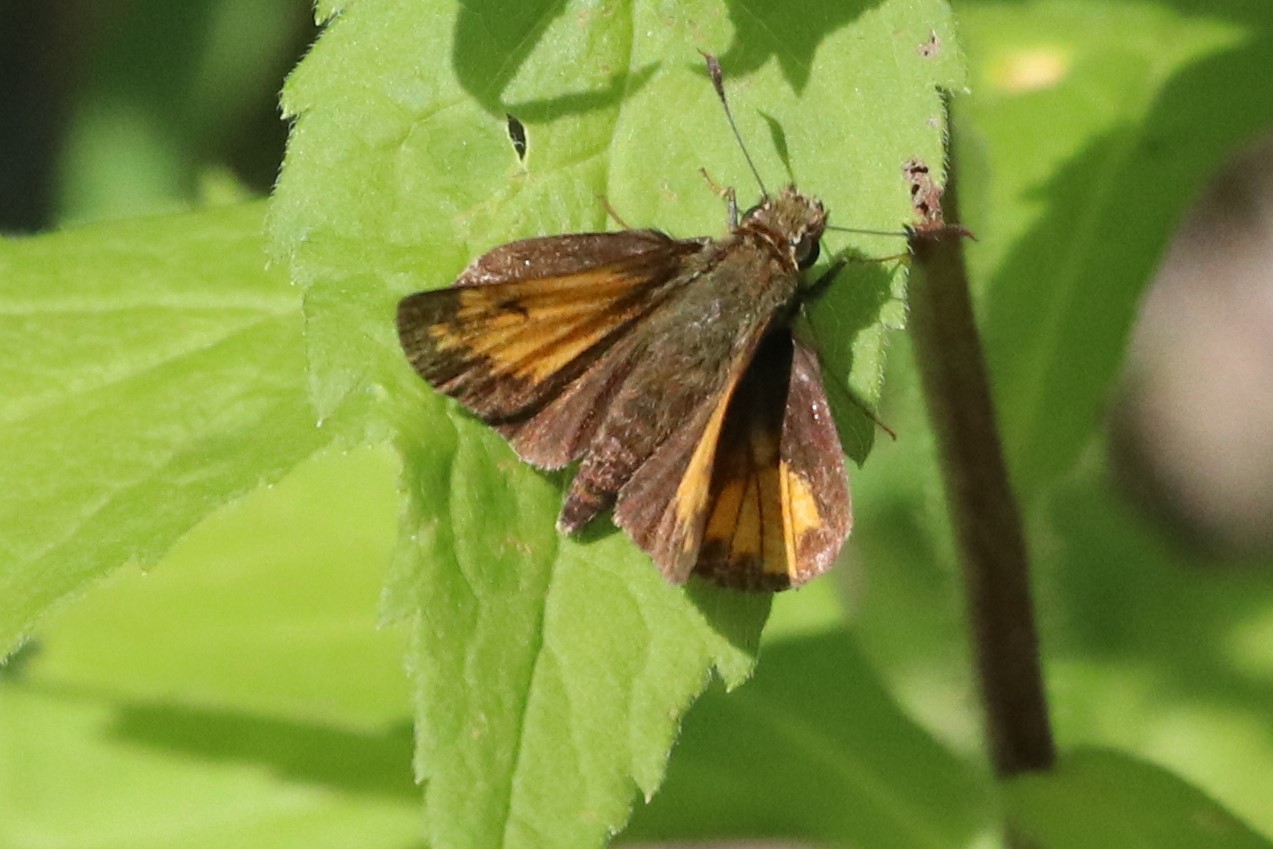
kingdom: Animalia
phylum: Arthropoda
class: Insecta
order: Lepidoptera
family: Hesperiidae
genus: Lon
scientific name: Lon hobomok
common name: Hobomok skipper
